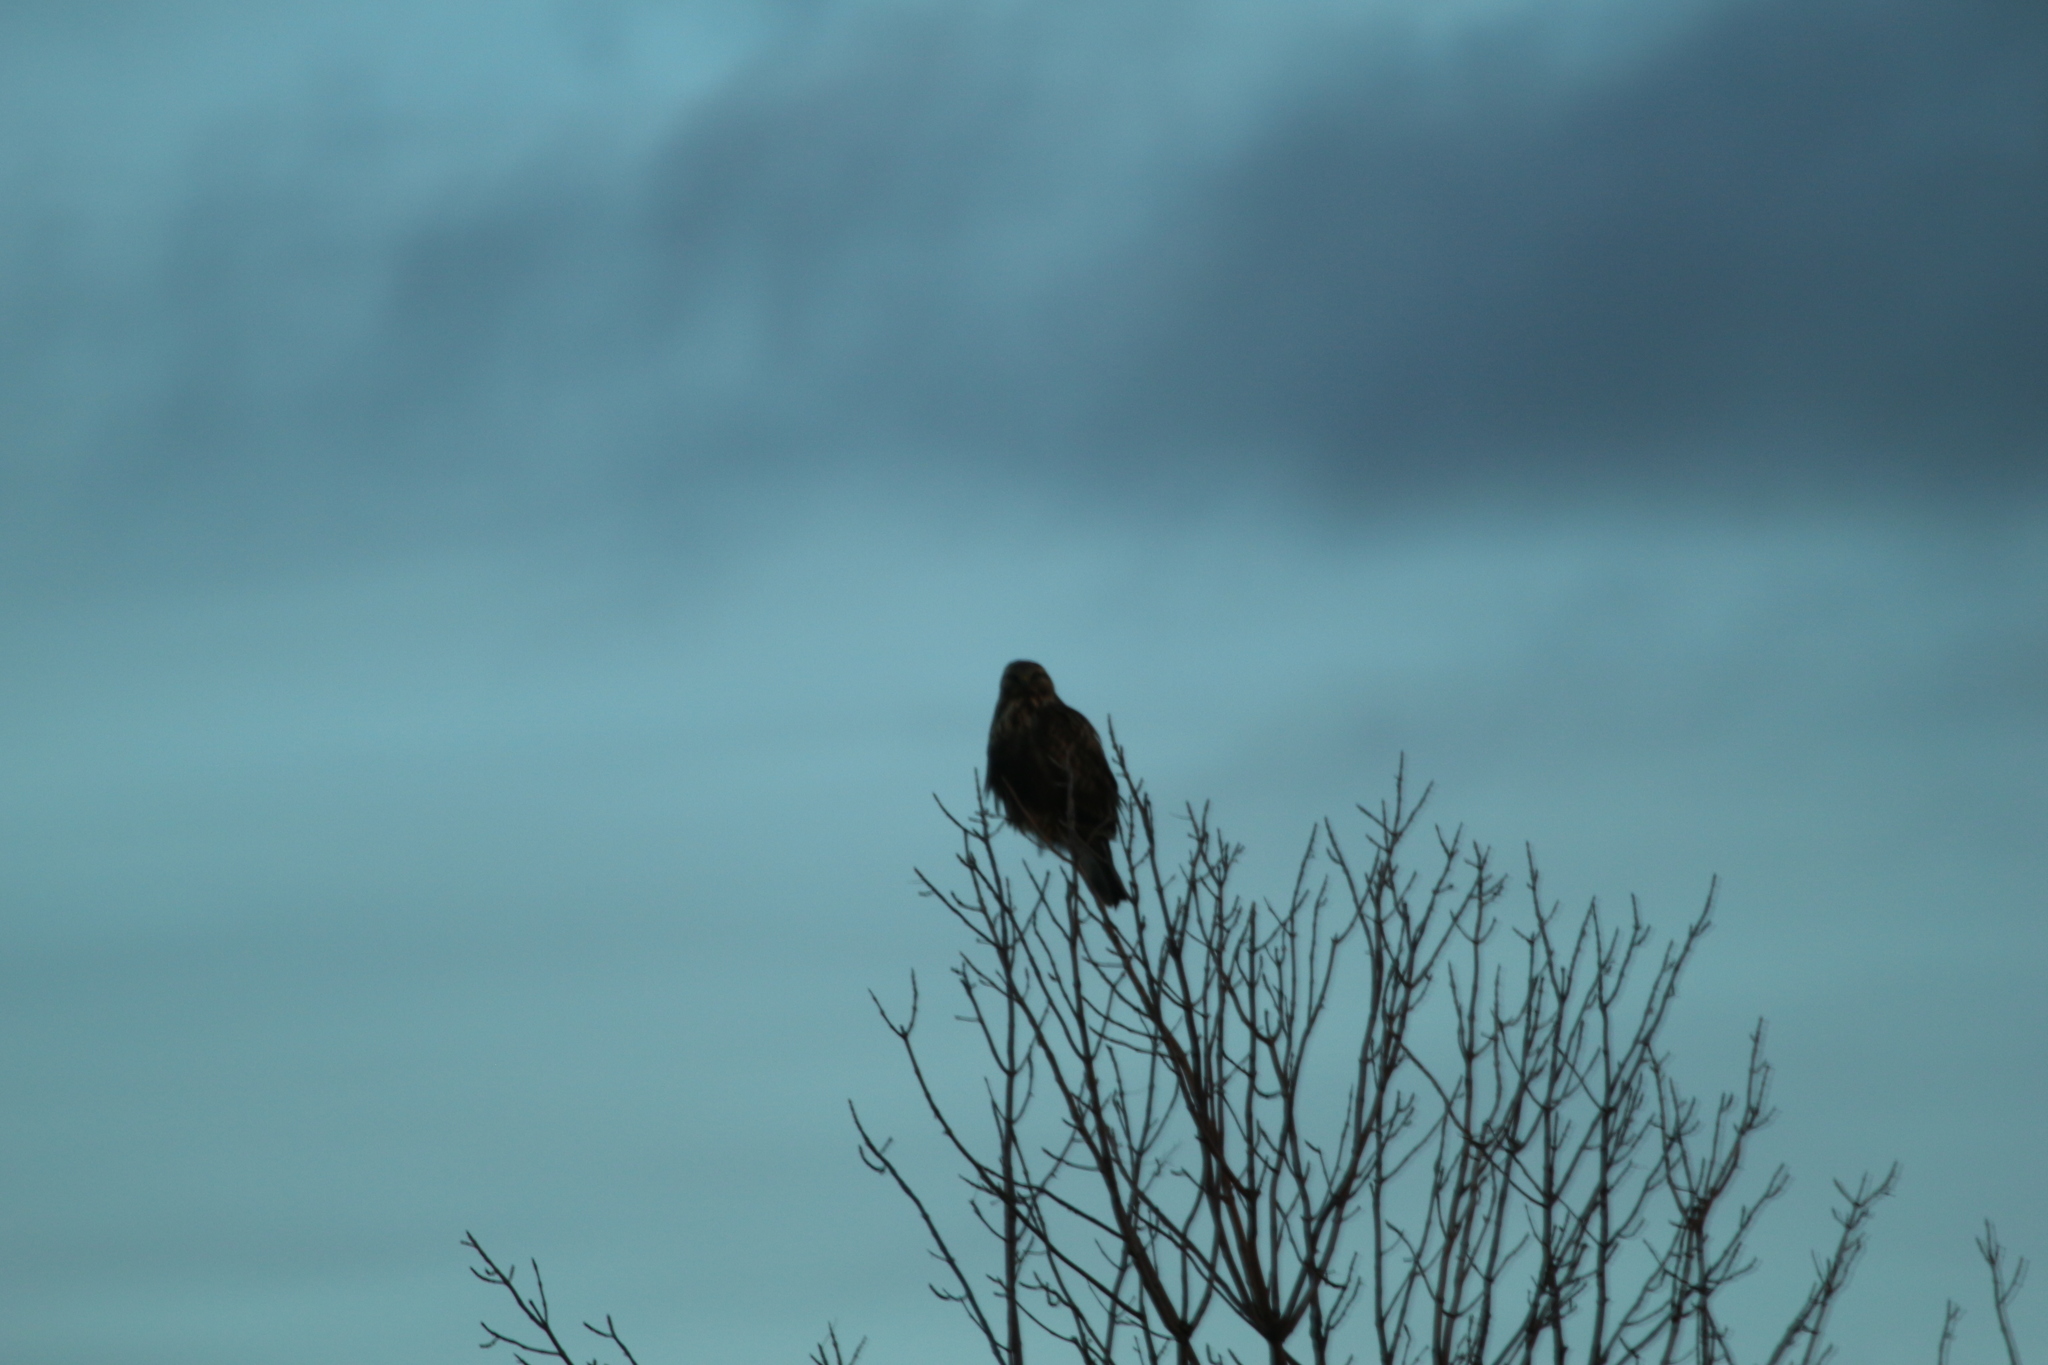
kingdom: Animalia
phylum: Chordata
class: Aves
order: Accipitriformes
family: Accipitridae
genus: Buteo
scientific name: Buteo lagopus
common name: Rough-legged buzzard
